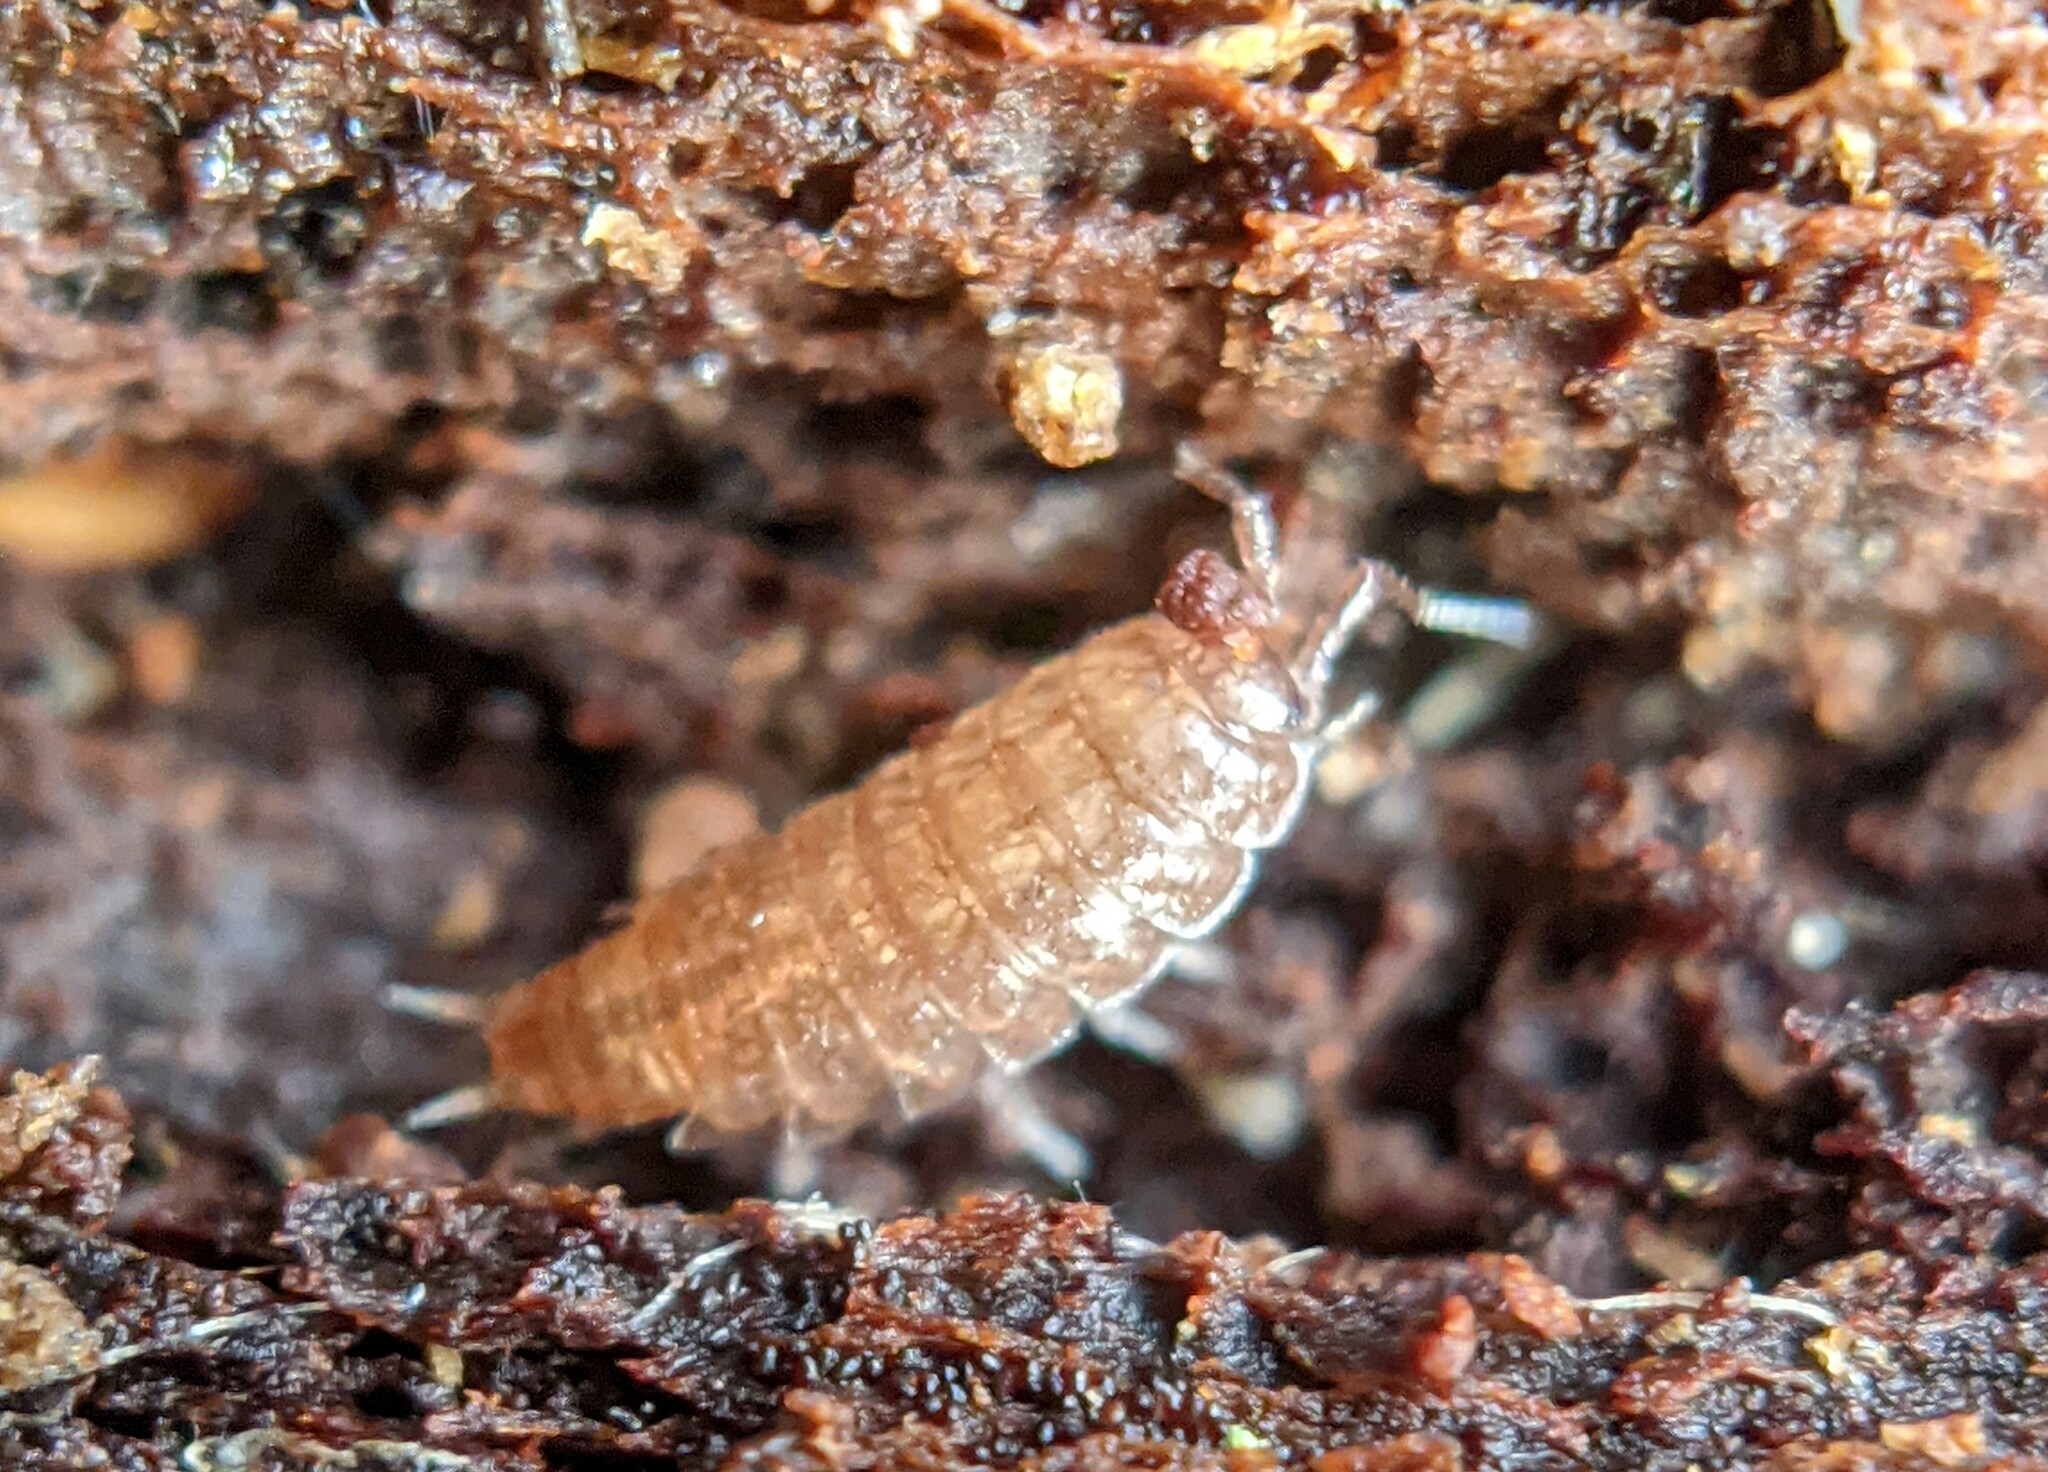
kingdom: Animalia
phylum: Arthropoda
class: Malacostraca
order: Isopoda
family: Trichoniscidae
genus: Trichoniscus
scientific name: Trichoniscus
